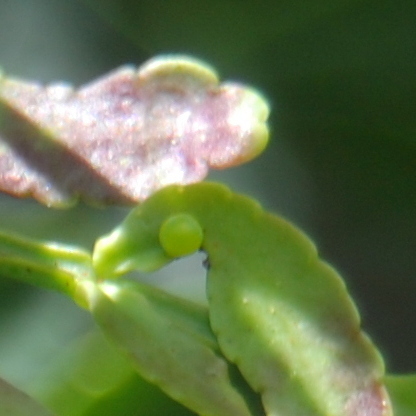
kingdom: Animalia
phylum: Arthropoda
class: Insecta
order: Lepidoptera
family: Papilionidae
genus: Papilio
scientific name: Papilio astyalus
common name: Astyalus swallowtail
